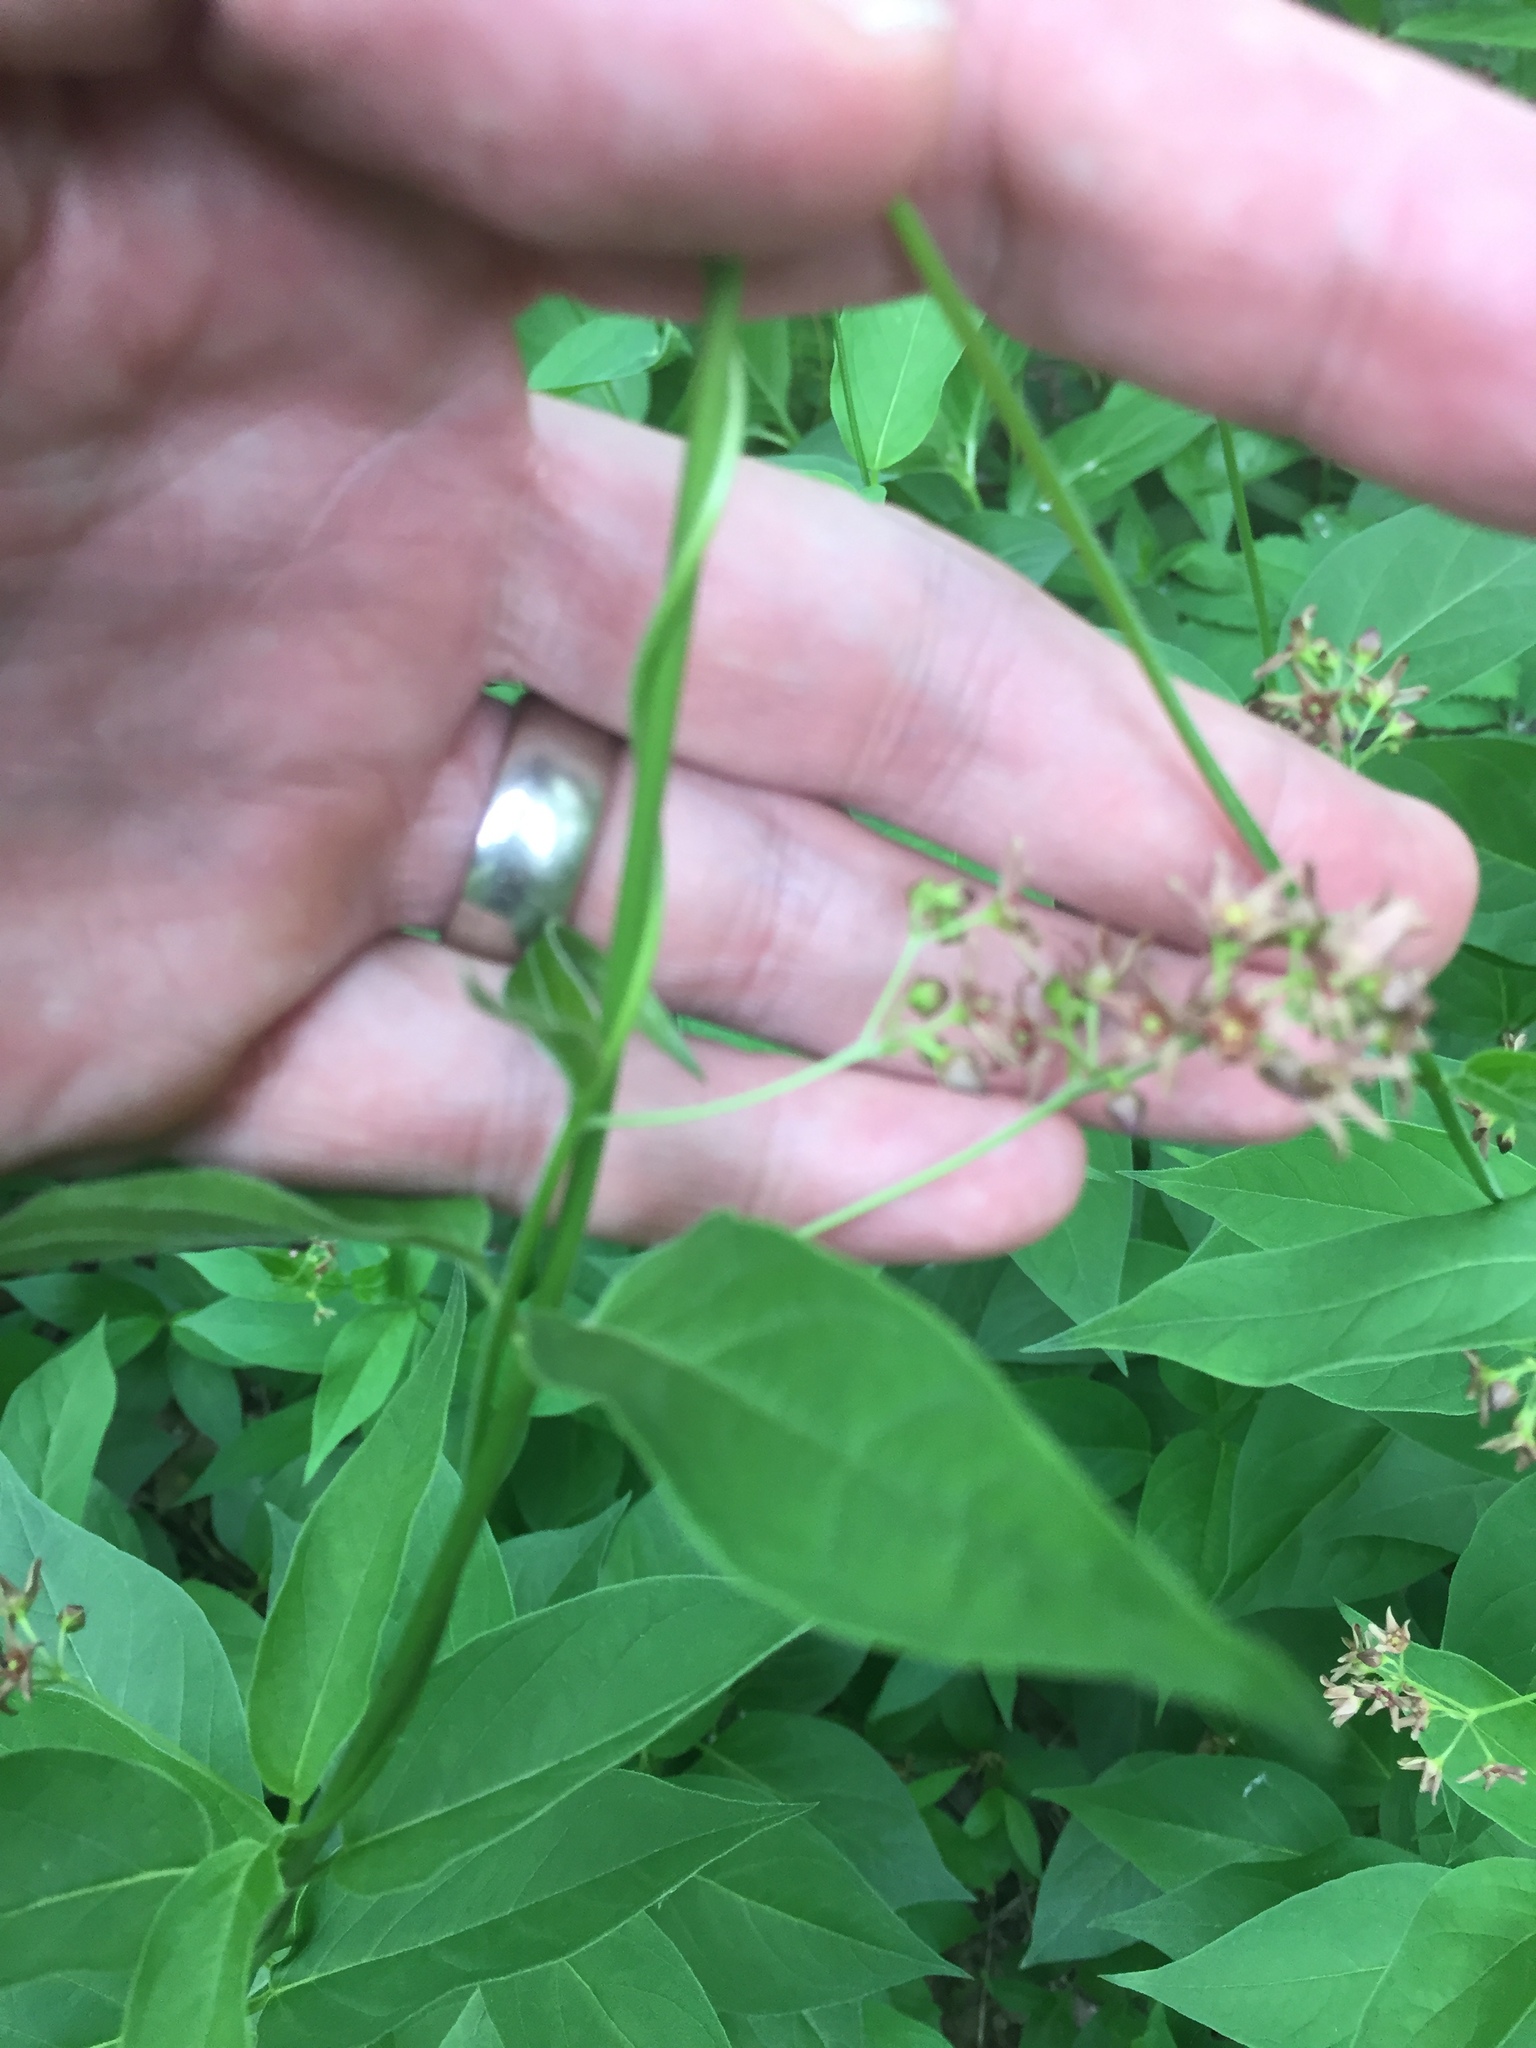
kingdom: Plantae
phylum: Tracheophyta
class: Magnoliopsida
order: Gentianales
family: Apocynaceae
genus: Vincetoxicum
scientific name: Vincetoxicum rossicum
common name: Dog-strangling vine
